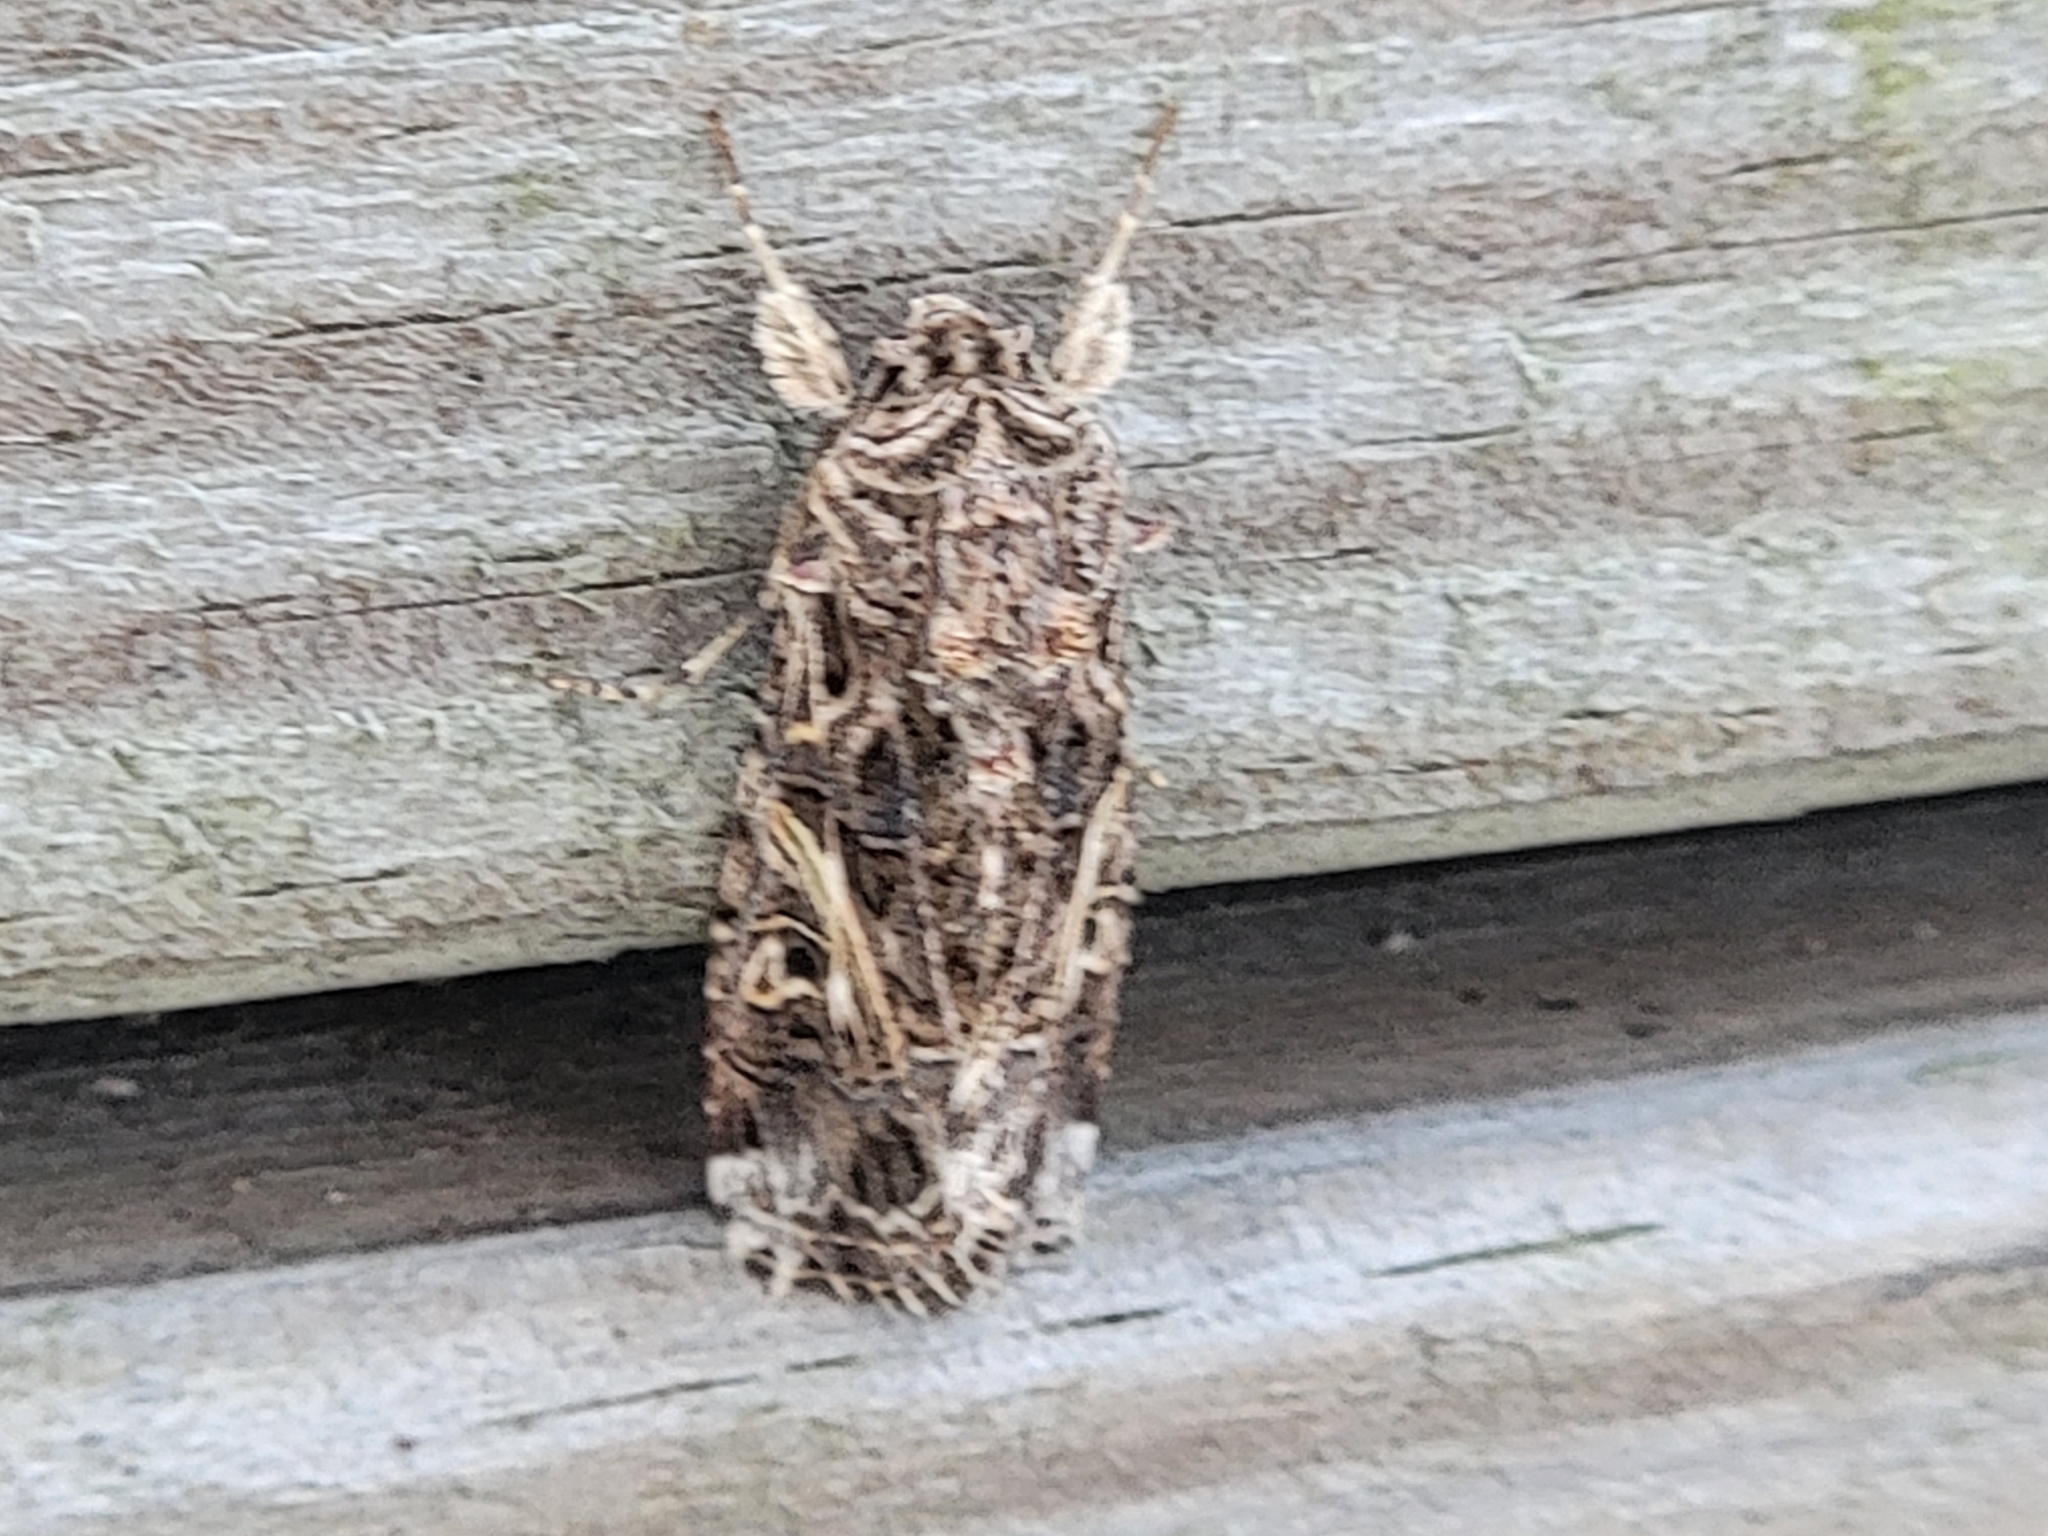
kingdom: Animalia
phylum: Arthropoda
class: Insecta
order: Lepidoptera
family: Noctuidae
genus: Spodoptera
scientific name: Spodoptera ornithogalli
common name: Yellow-striped armyworm
